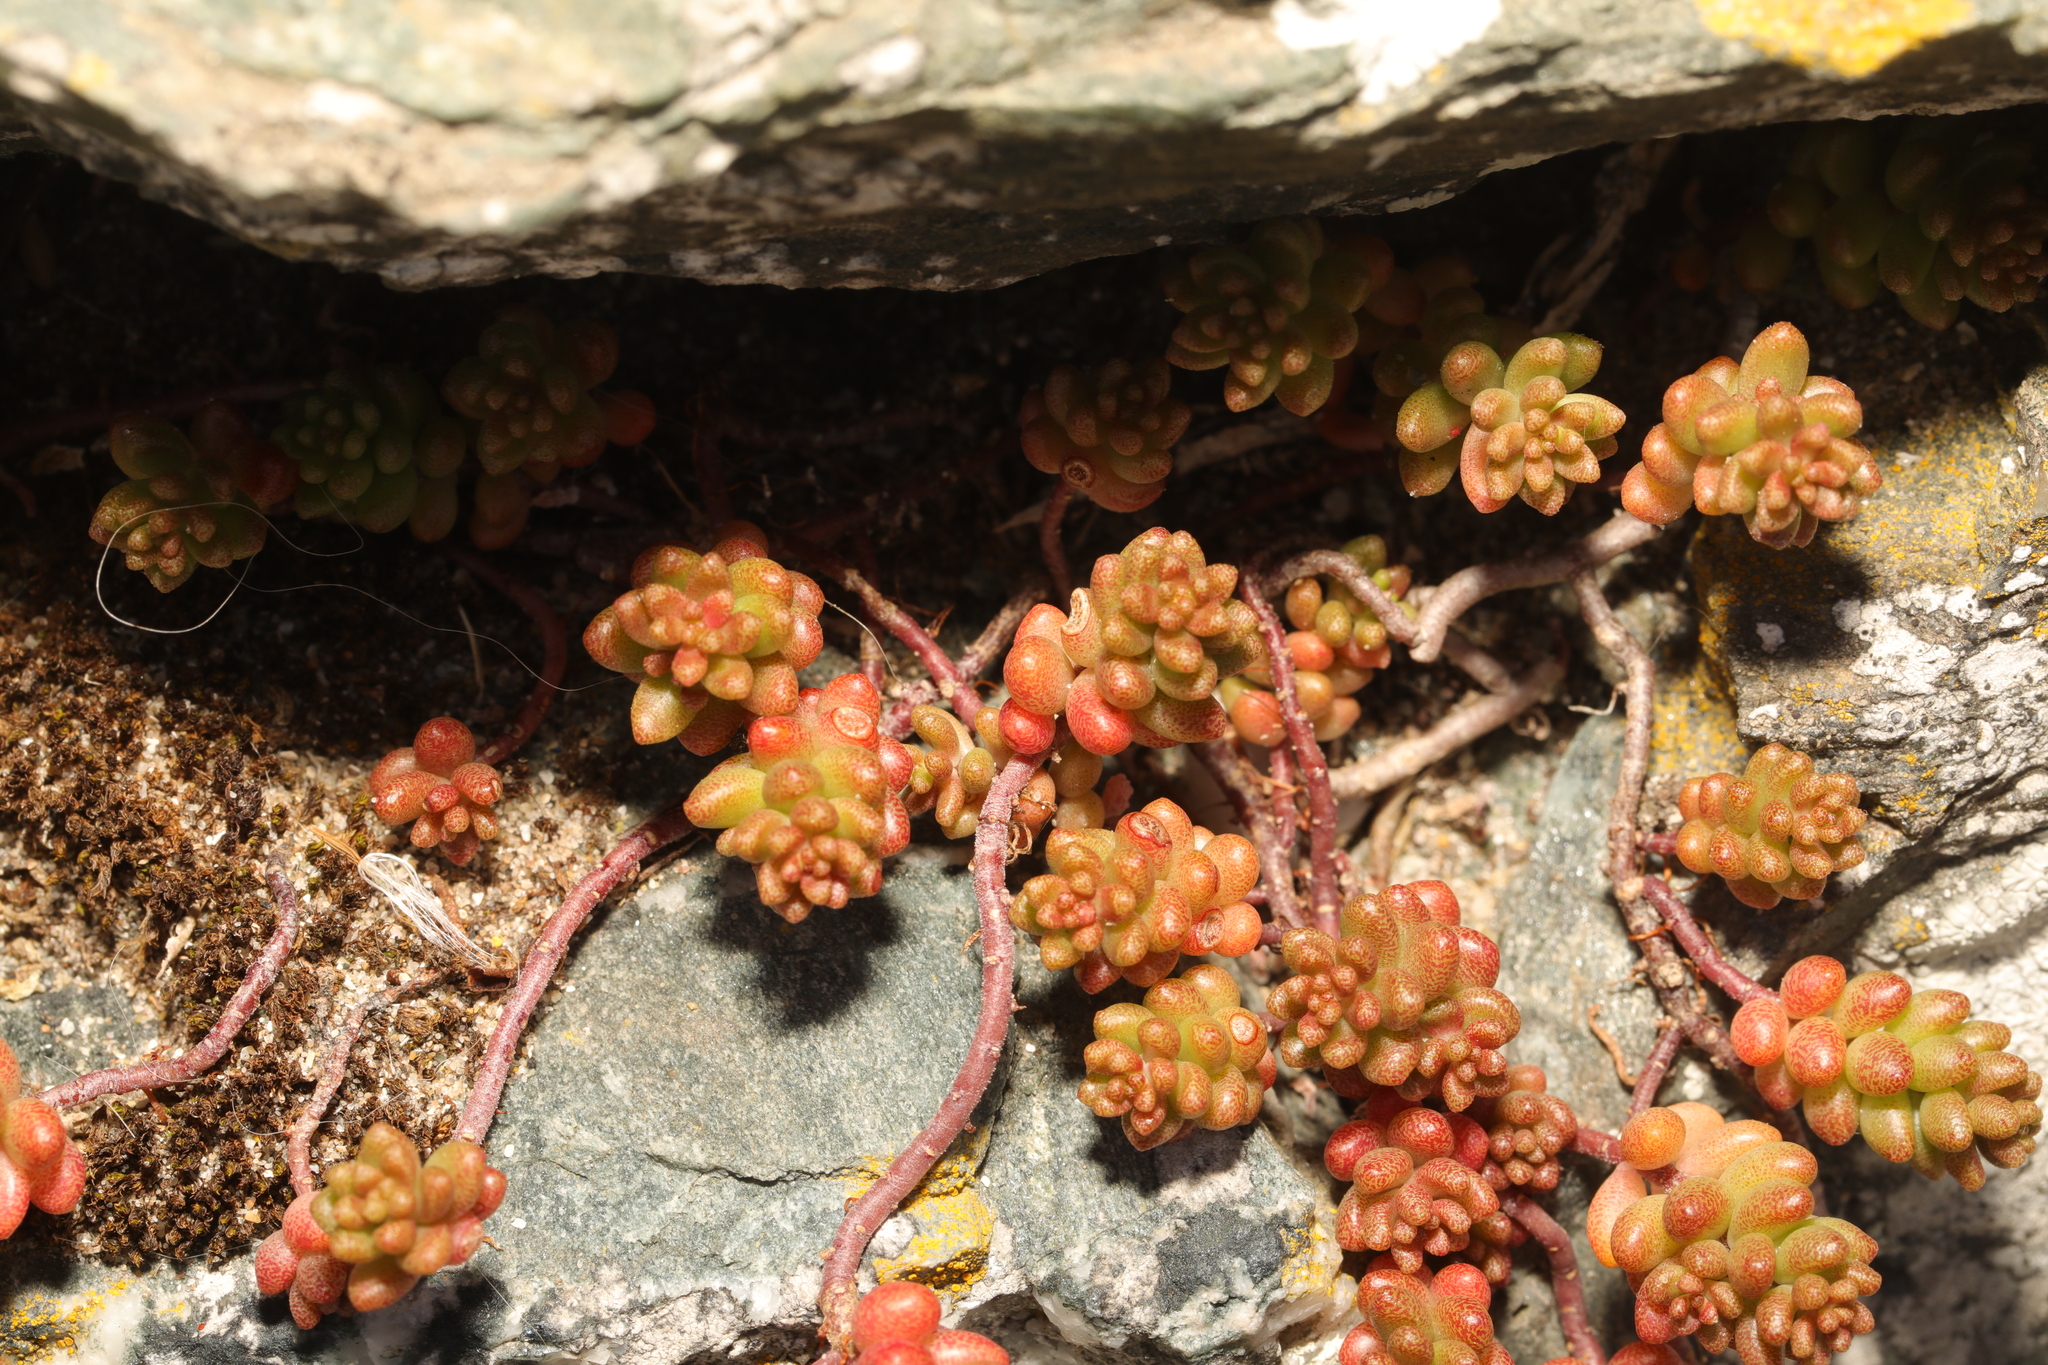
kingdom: Plantae
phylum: Tracheophyta
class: Magnoliopsida
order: Saxifragales
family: Crassulaceae
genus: Sedum
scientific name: Sedum album
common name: White stonecrop
